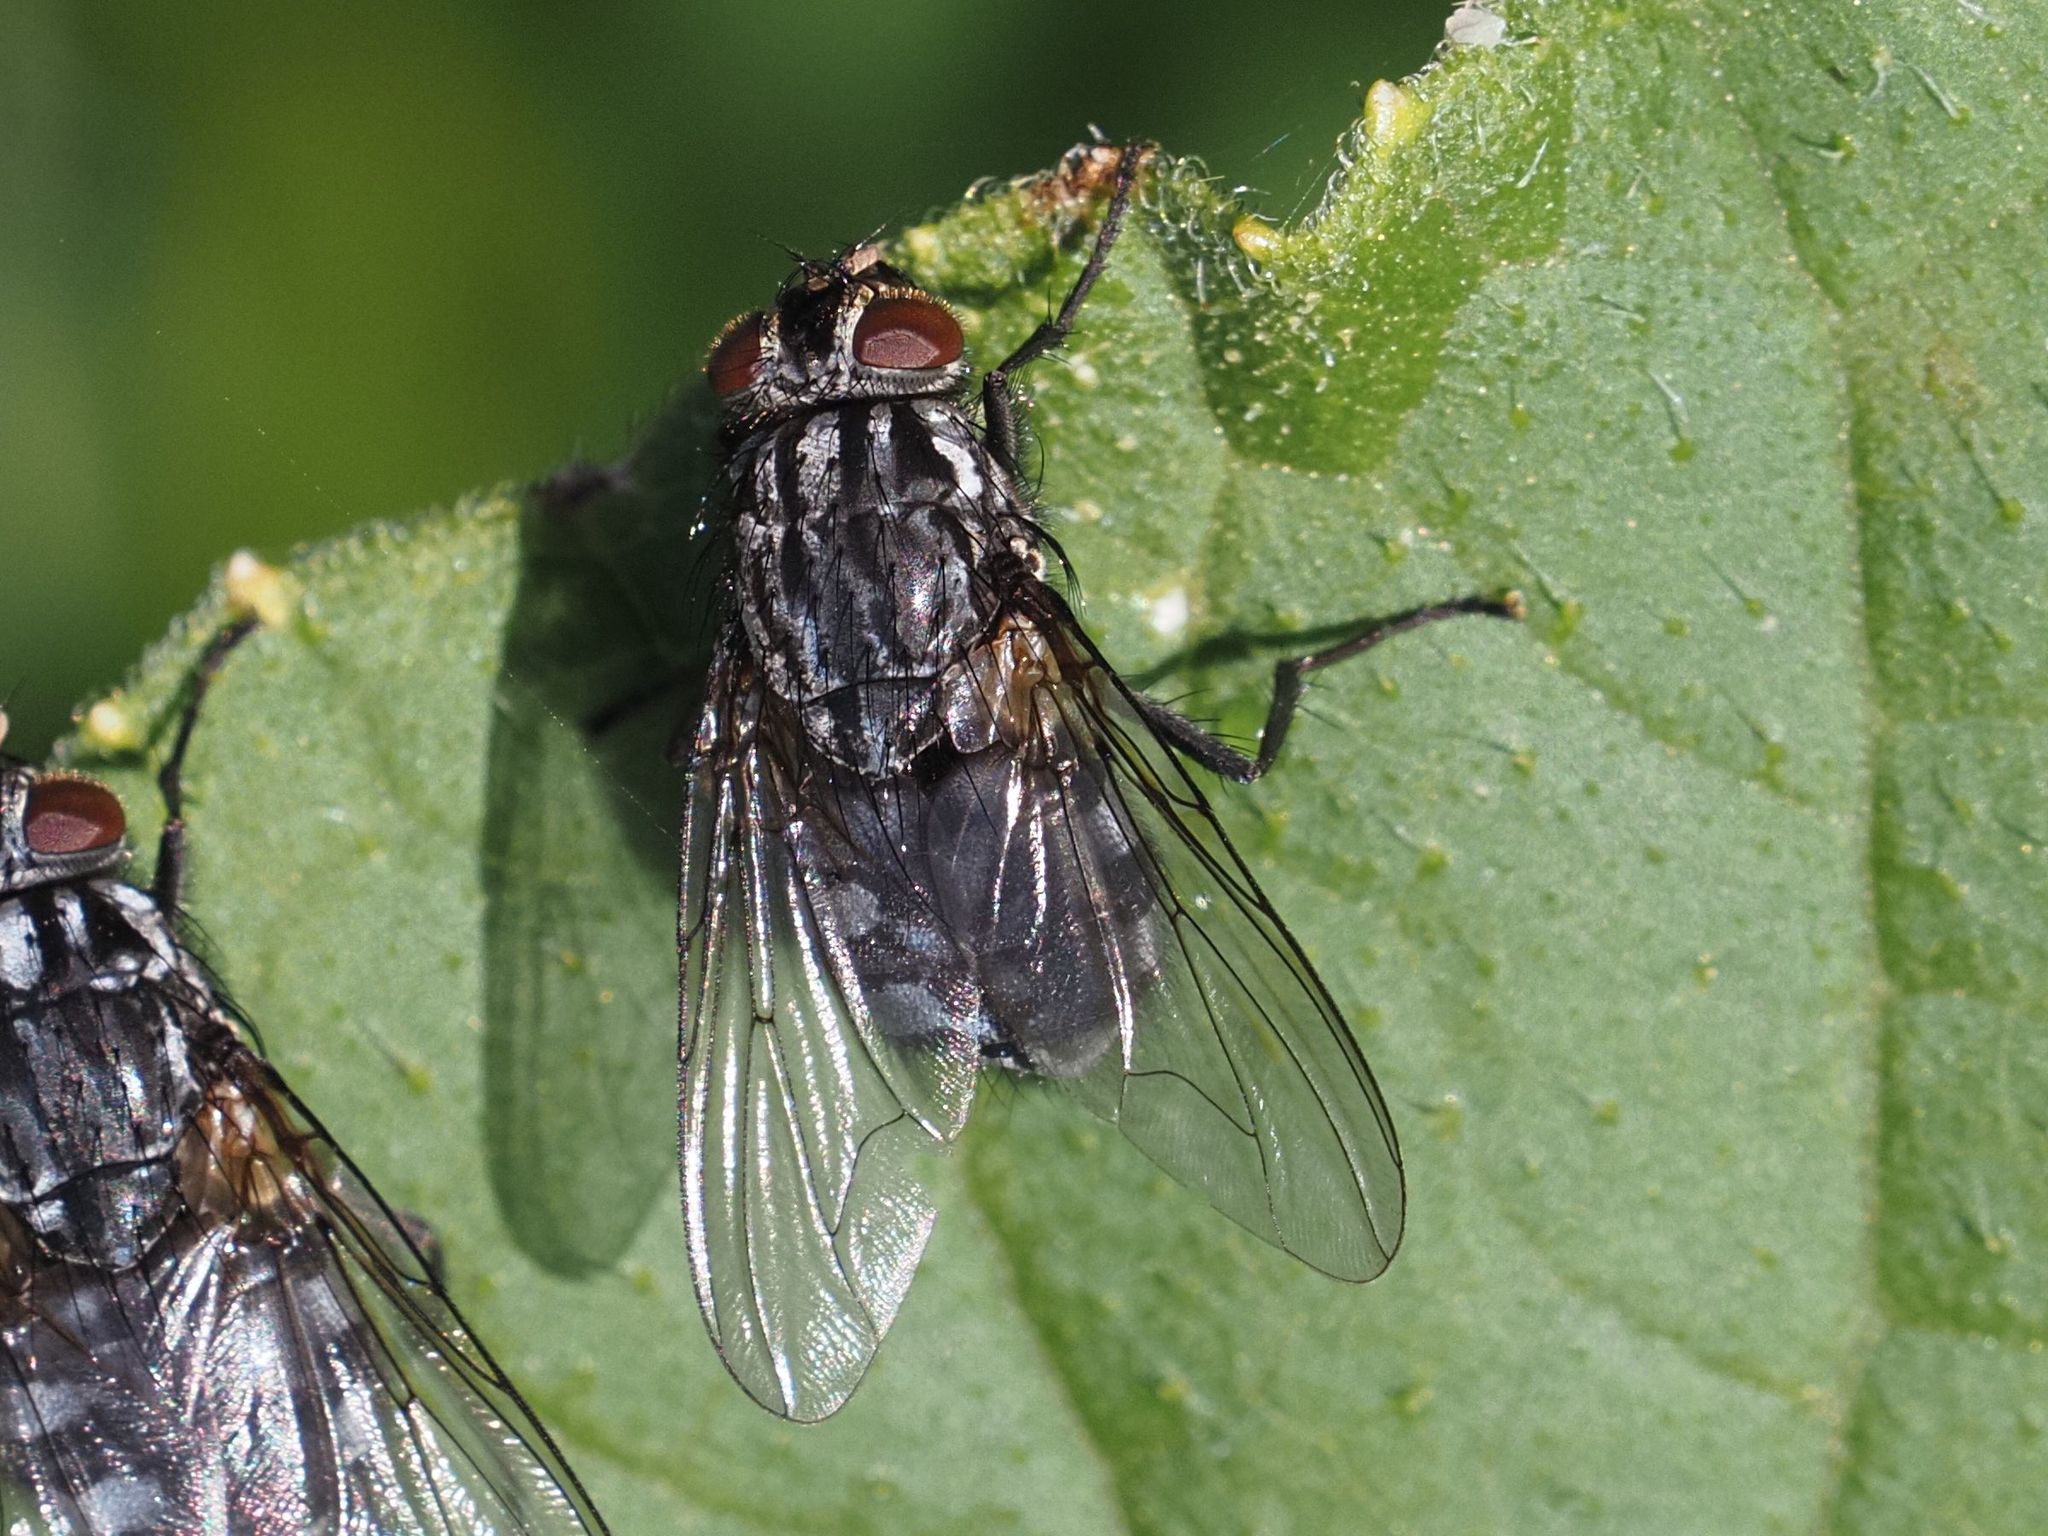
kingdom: Animalia
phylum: Arthropoda
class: Insecta
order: Diptera
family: Muscidae
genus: Polietes
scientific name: Polietes lardaria
